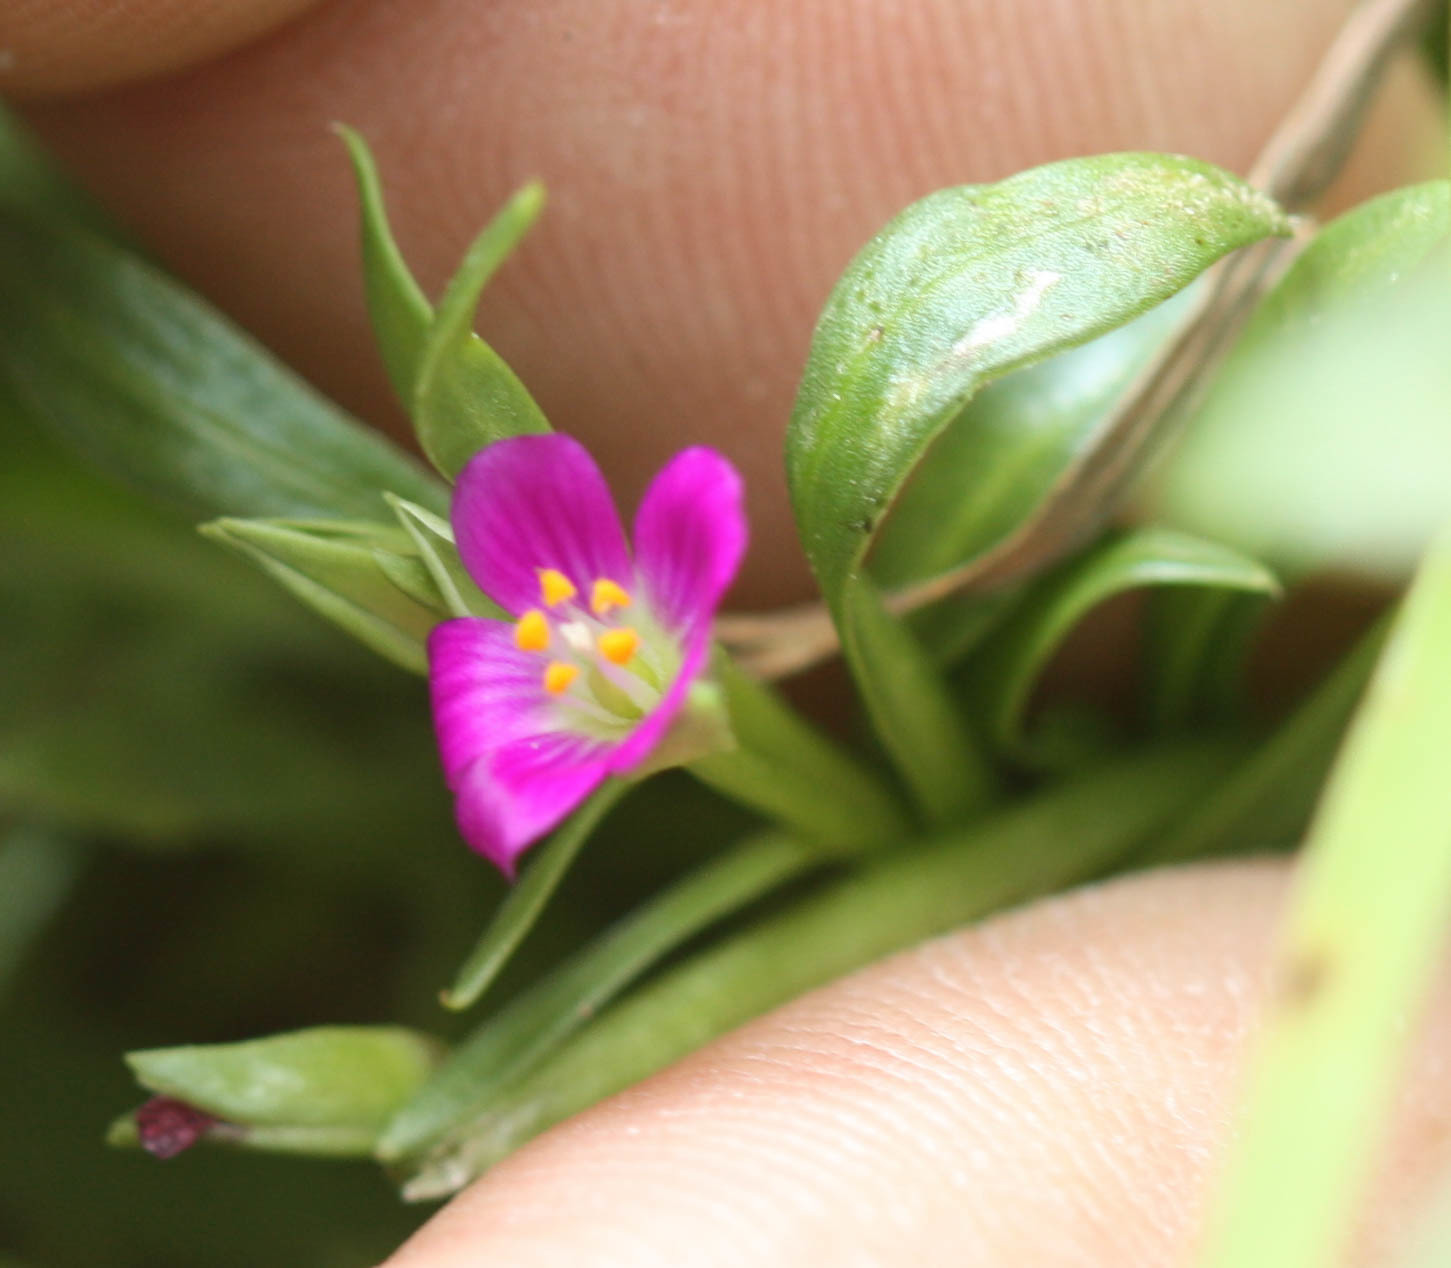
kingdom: Plantae
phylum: Tracheophyta
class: Magnoliopsida
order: Caryophyllales
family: Montiaceae
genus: Calandrinia
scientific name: Calandrinia menziesii
